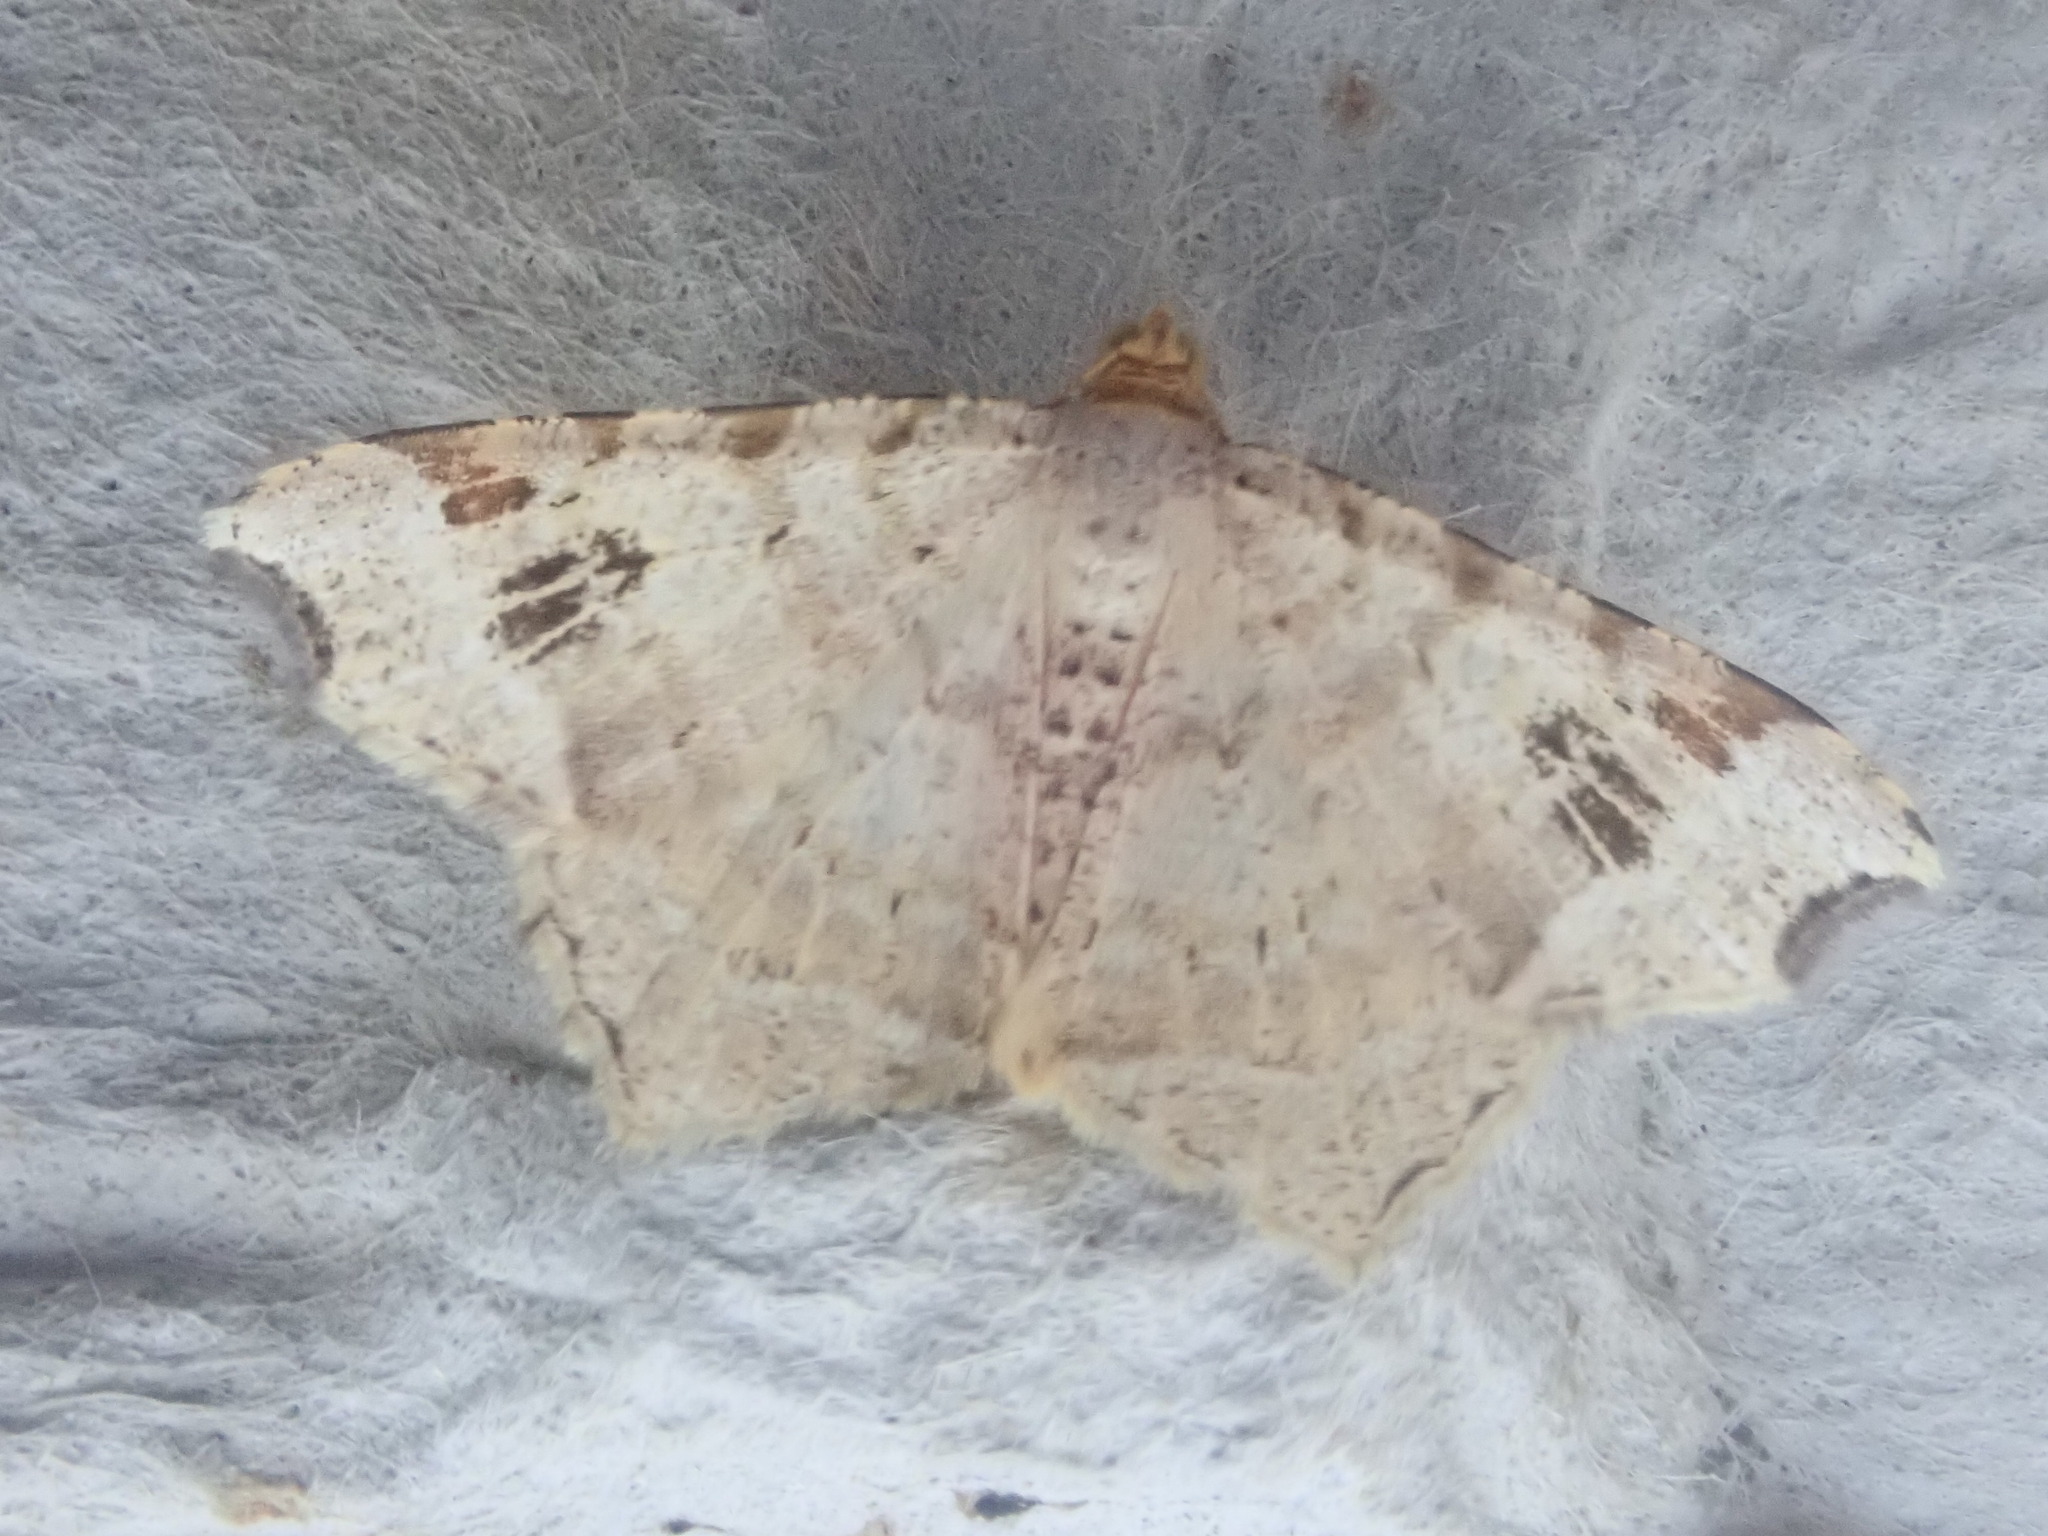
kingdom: Animalia
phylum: Arthropoda
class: Insecta
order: Lepidoptera
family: Geometridae
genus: Macaria
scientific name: Macaria aemulataria
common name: Common angle
